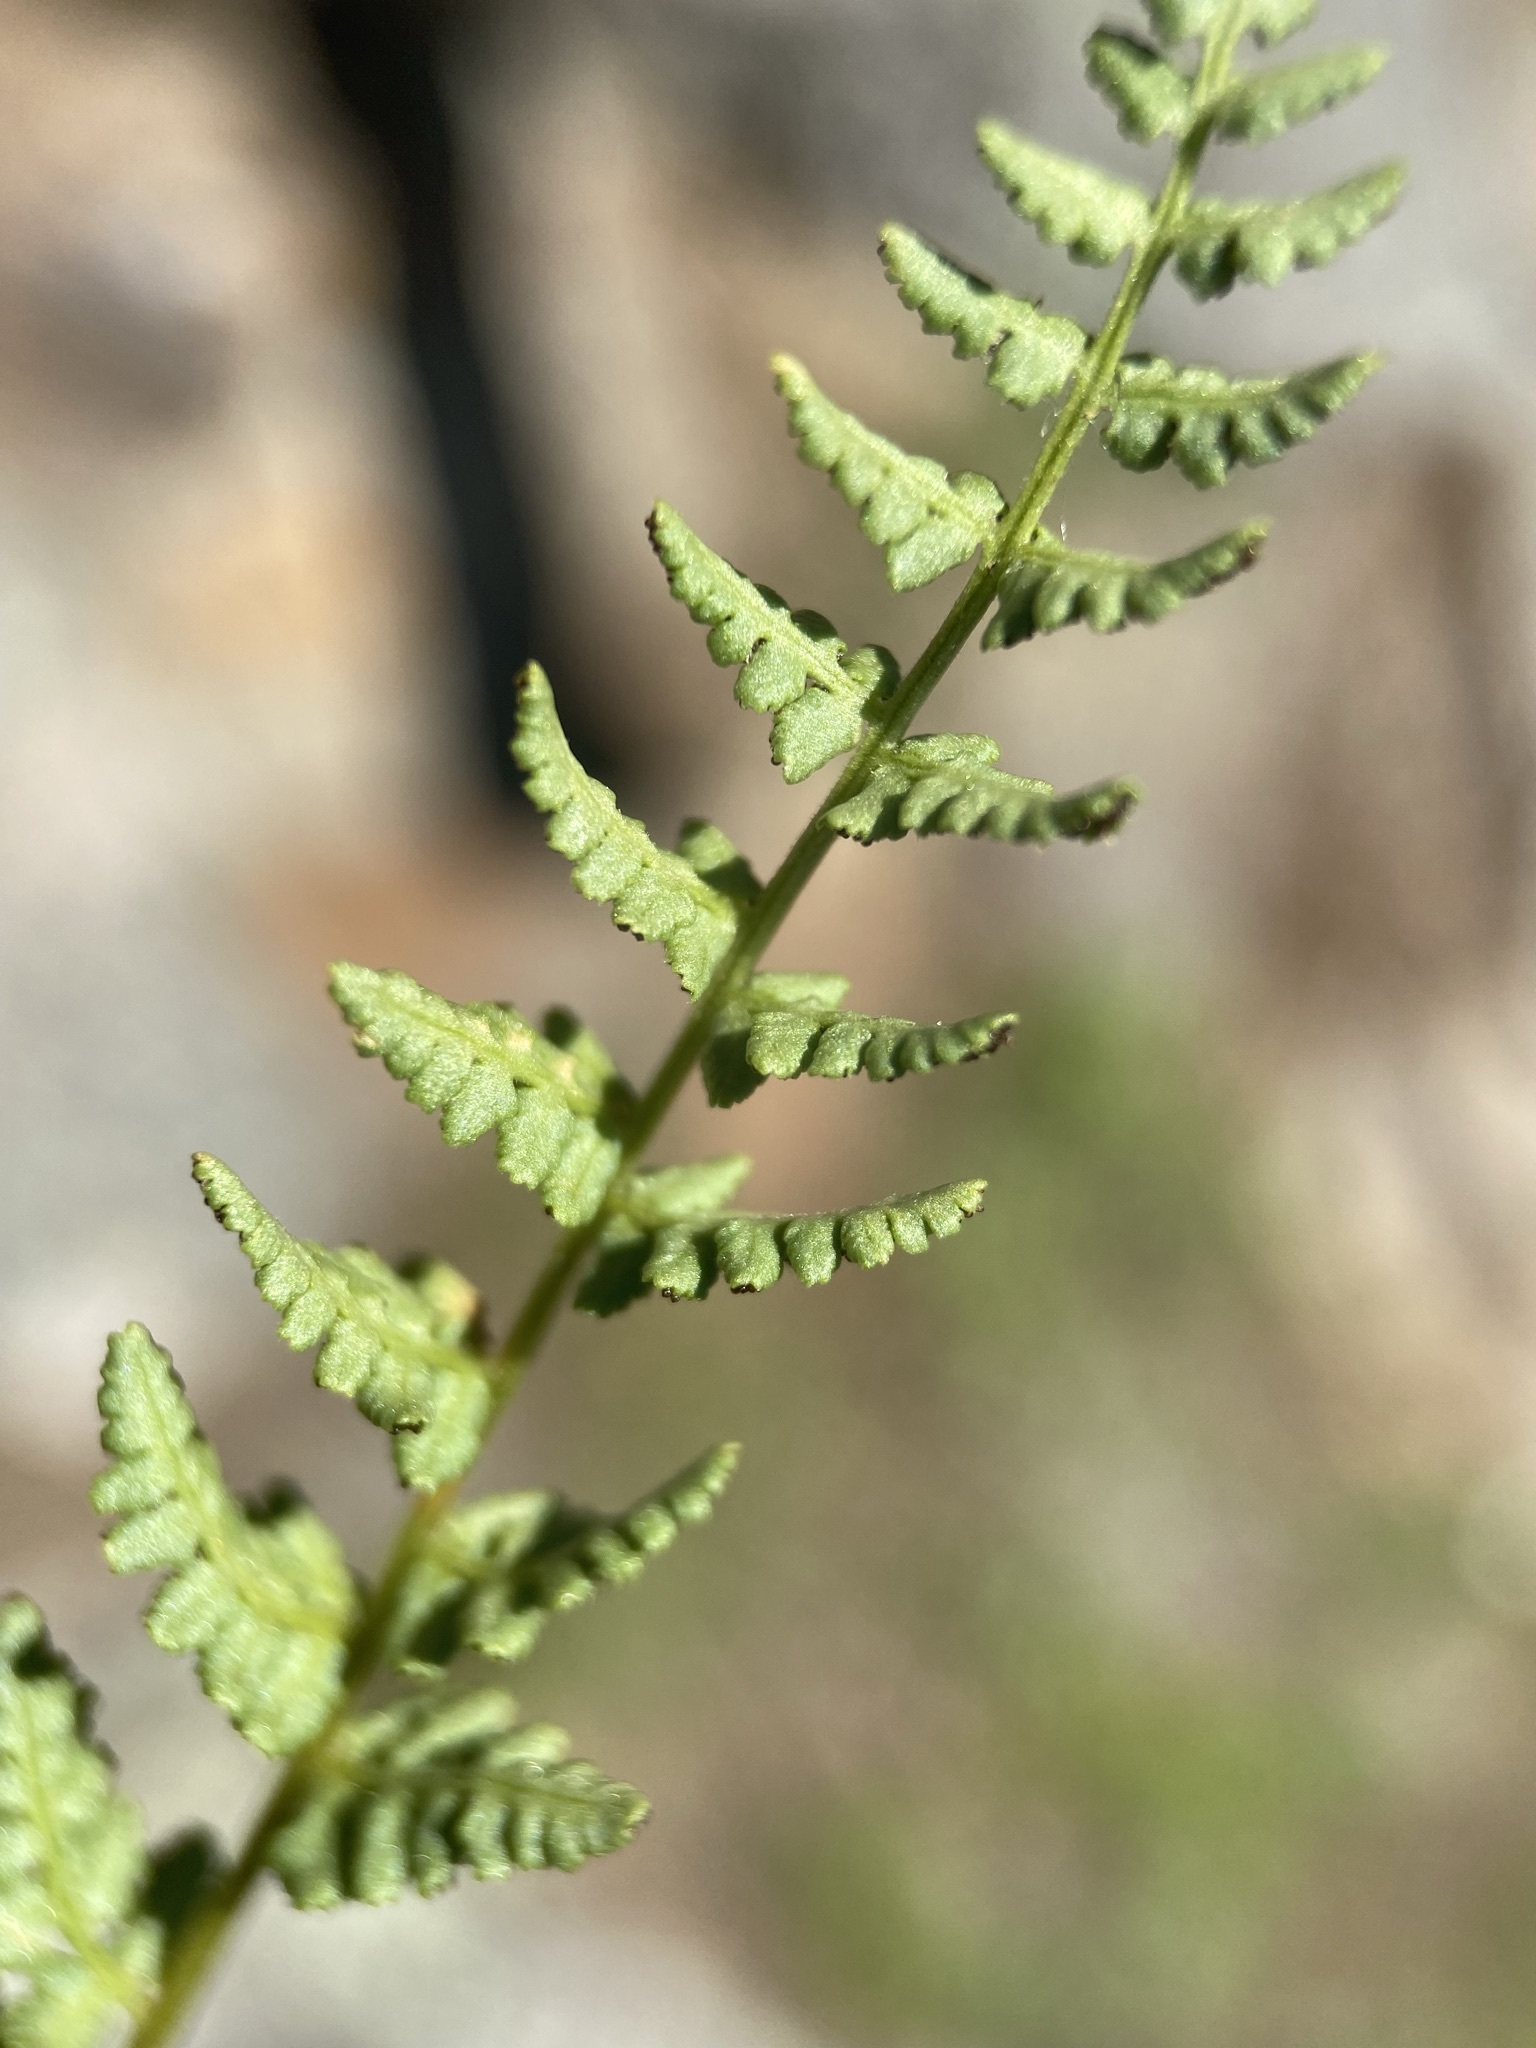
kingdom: Plantae
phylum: Tracheophyta
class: Polypodiopsida
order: Polypodiales
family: Woodsiaceae
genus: Physematium
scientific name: Physematium oreganum
